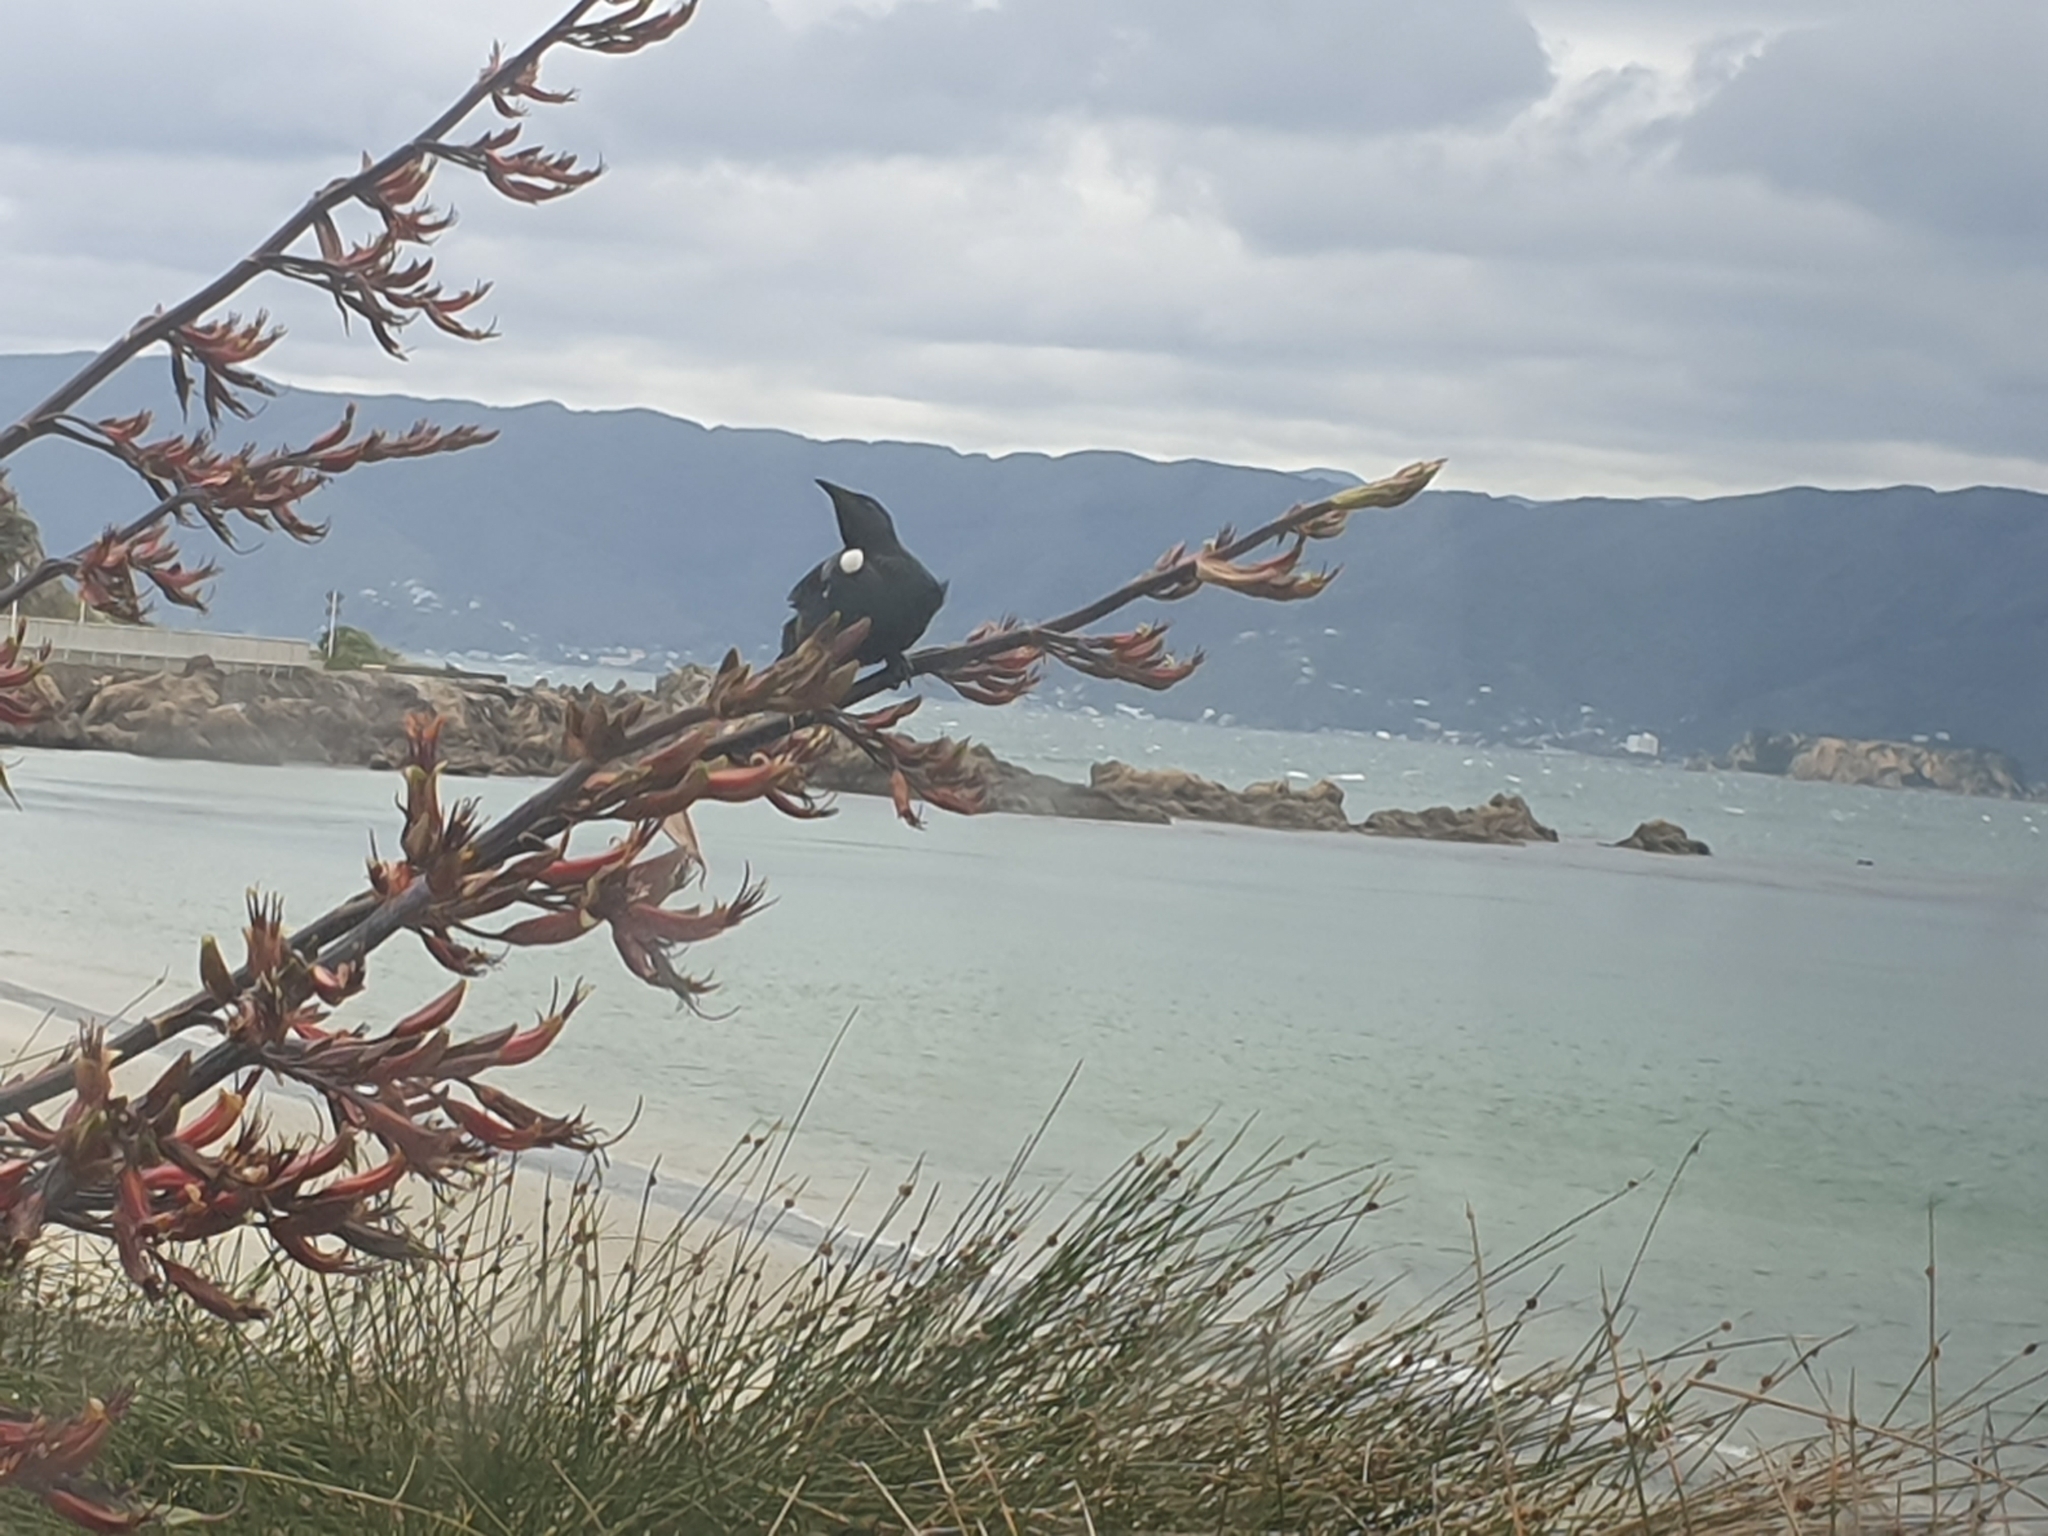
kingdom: Animalia
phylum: Chordata
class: Aves
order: Passeriformes
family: Meliphagidae
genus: Prosthemadera
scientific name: Prosthemadera novaeseelandiae
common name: Tui
